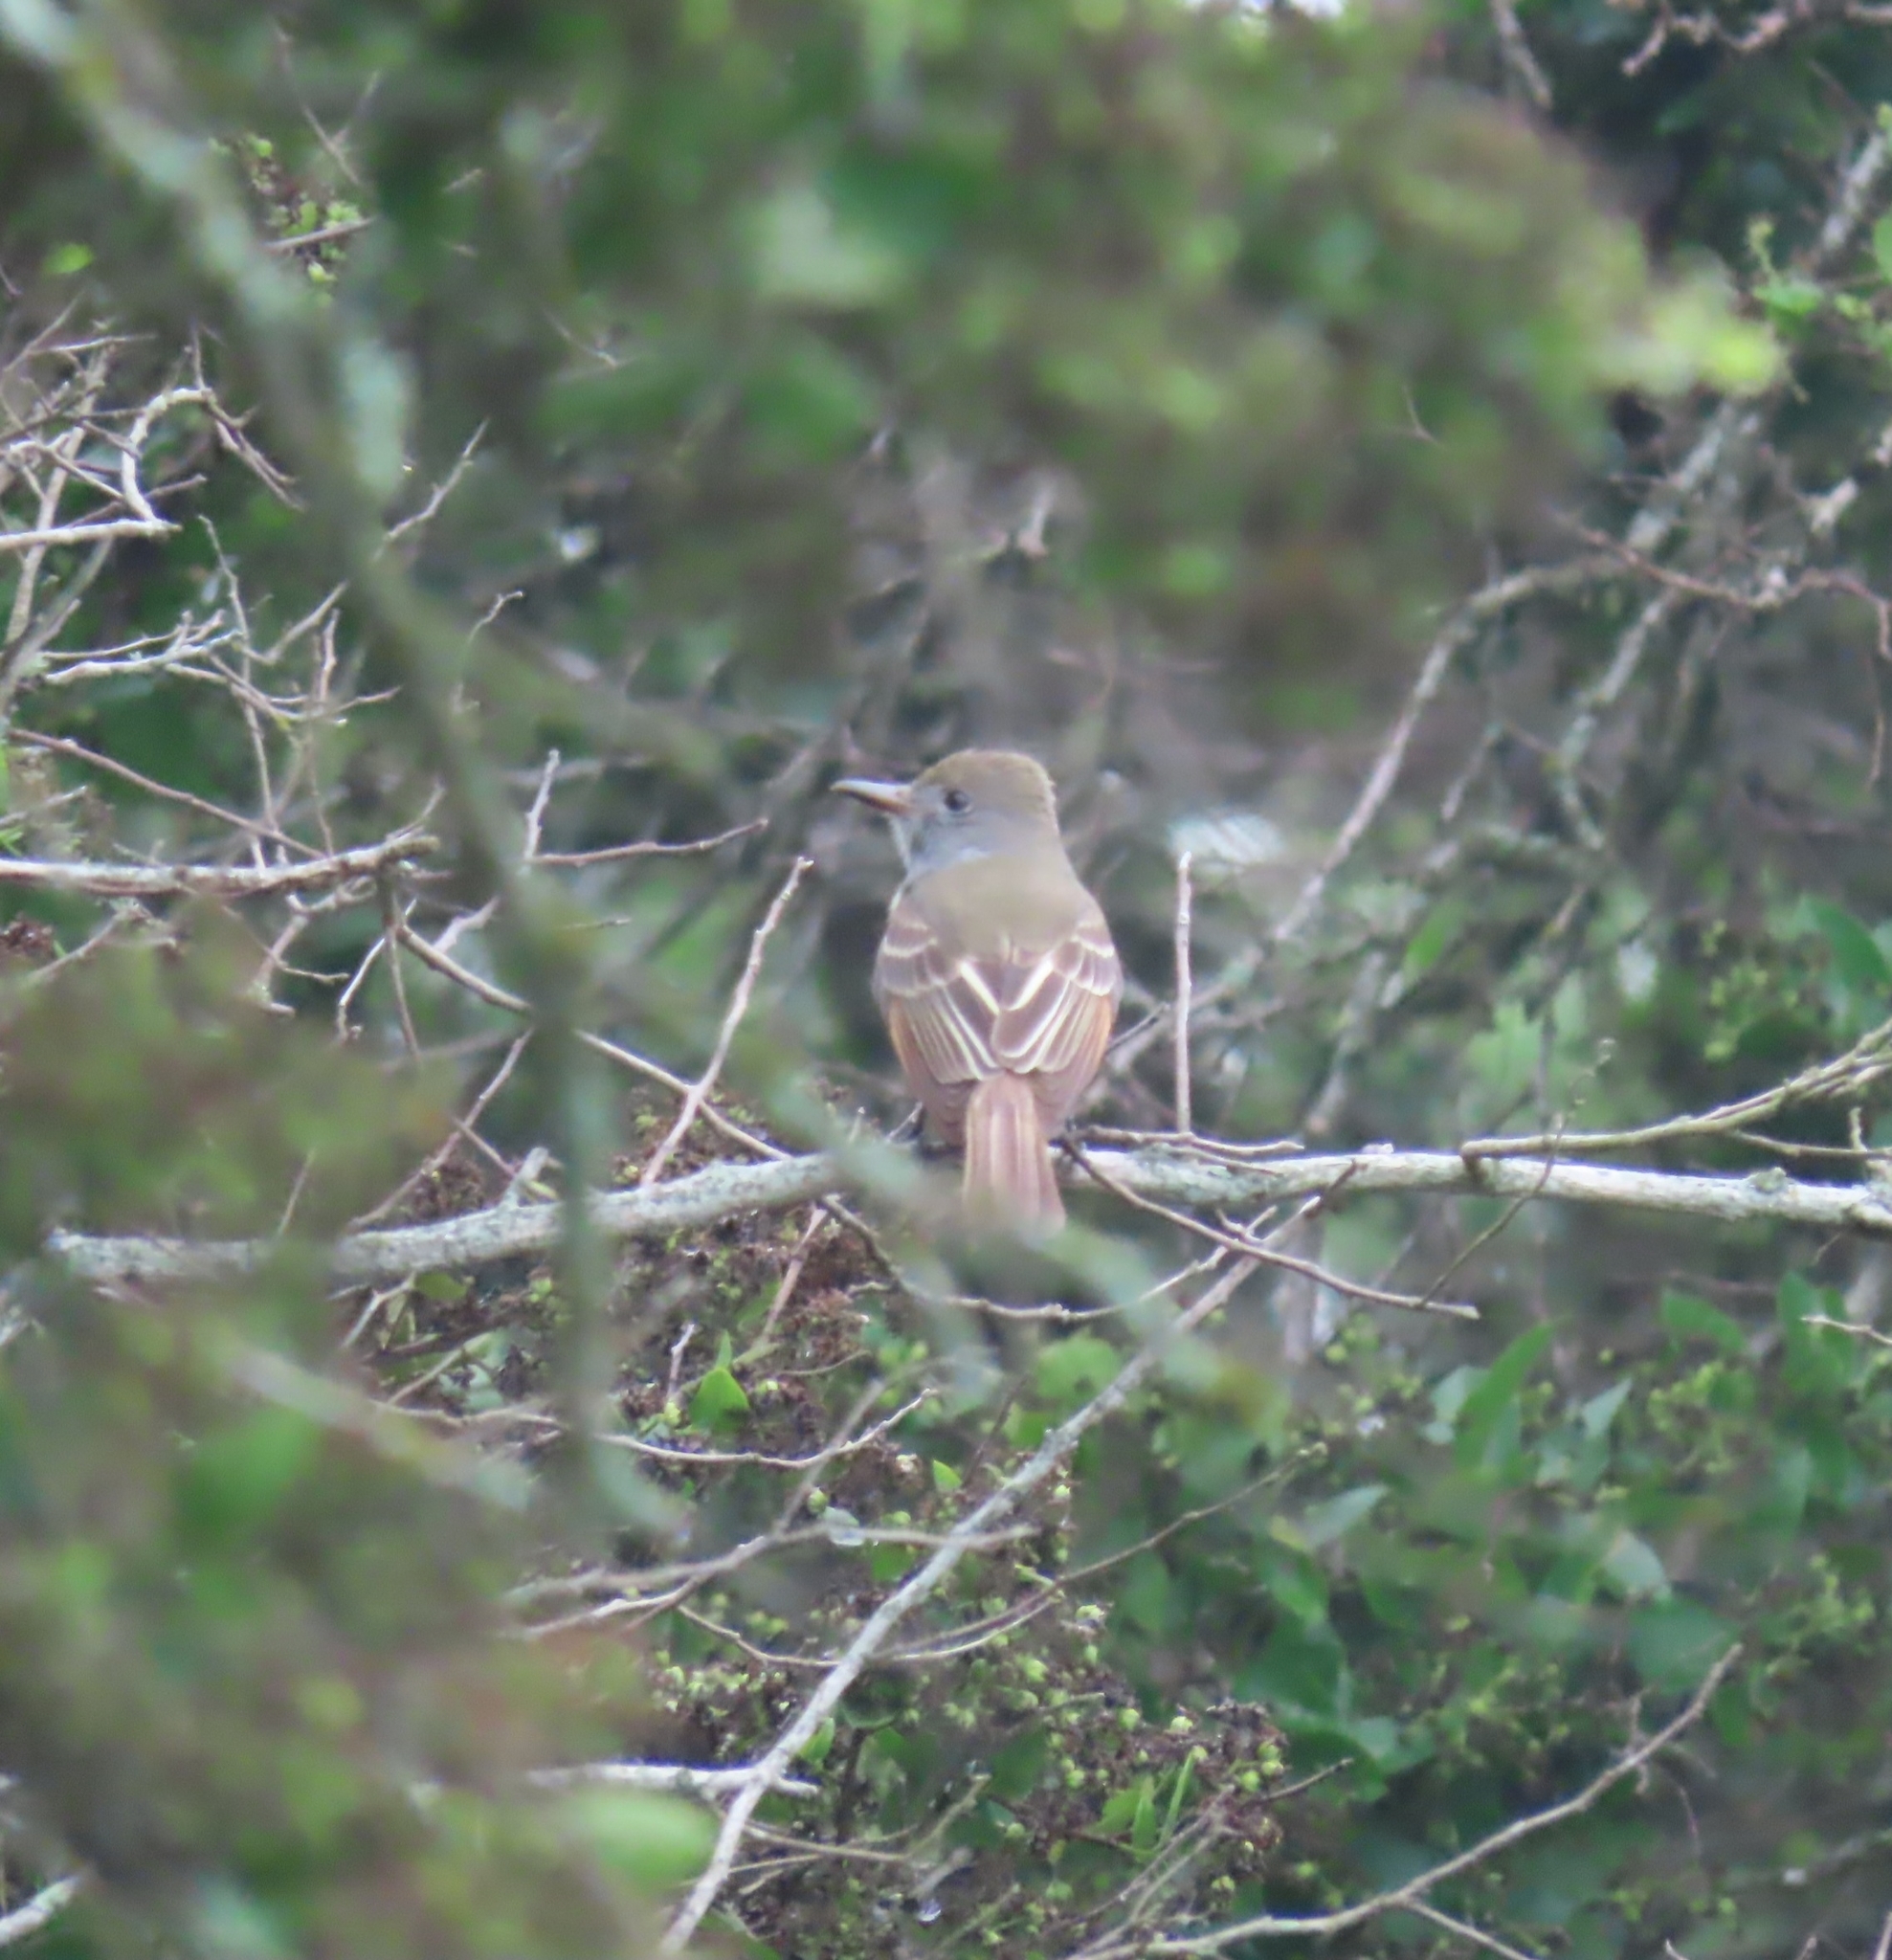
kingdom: Animalia
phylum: Chordata
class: Aves
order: Passeriformes
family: Tyrannidae
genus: Myiarchus
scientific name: Myiarchus crinitus
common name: Great crested flycatcher
